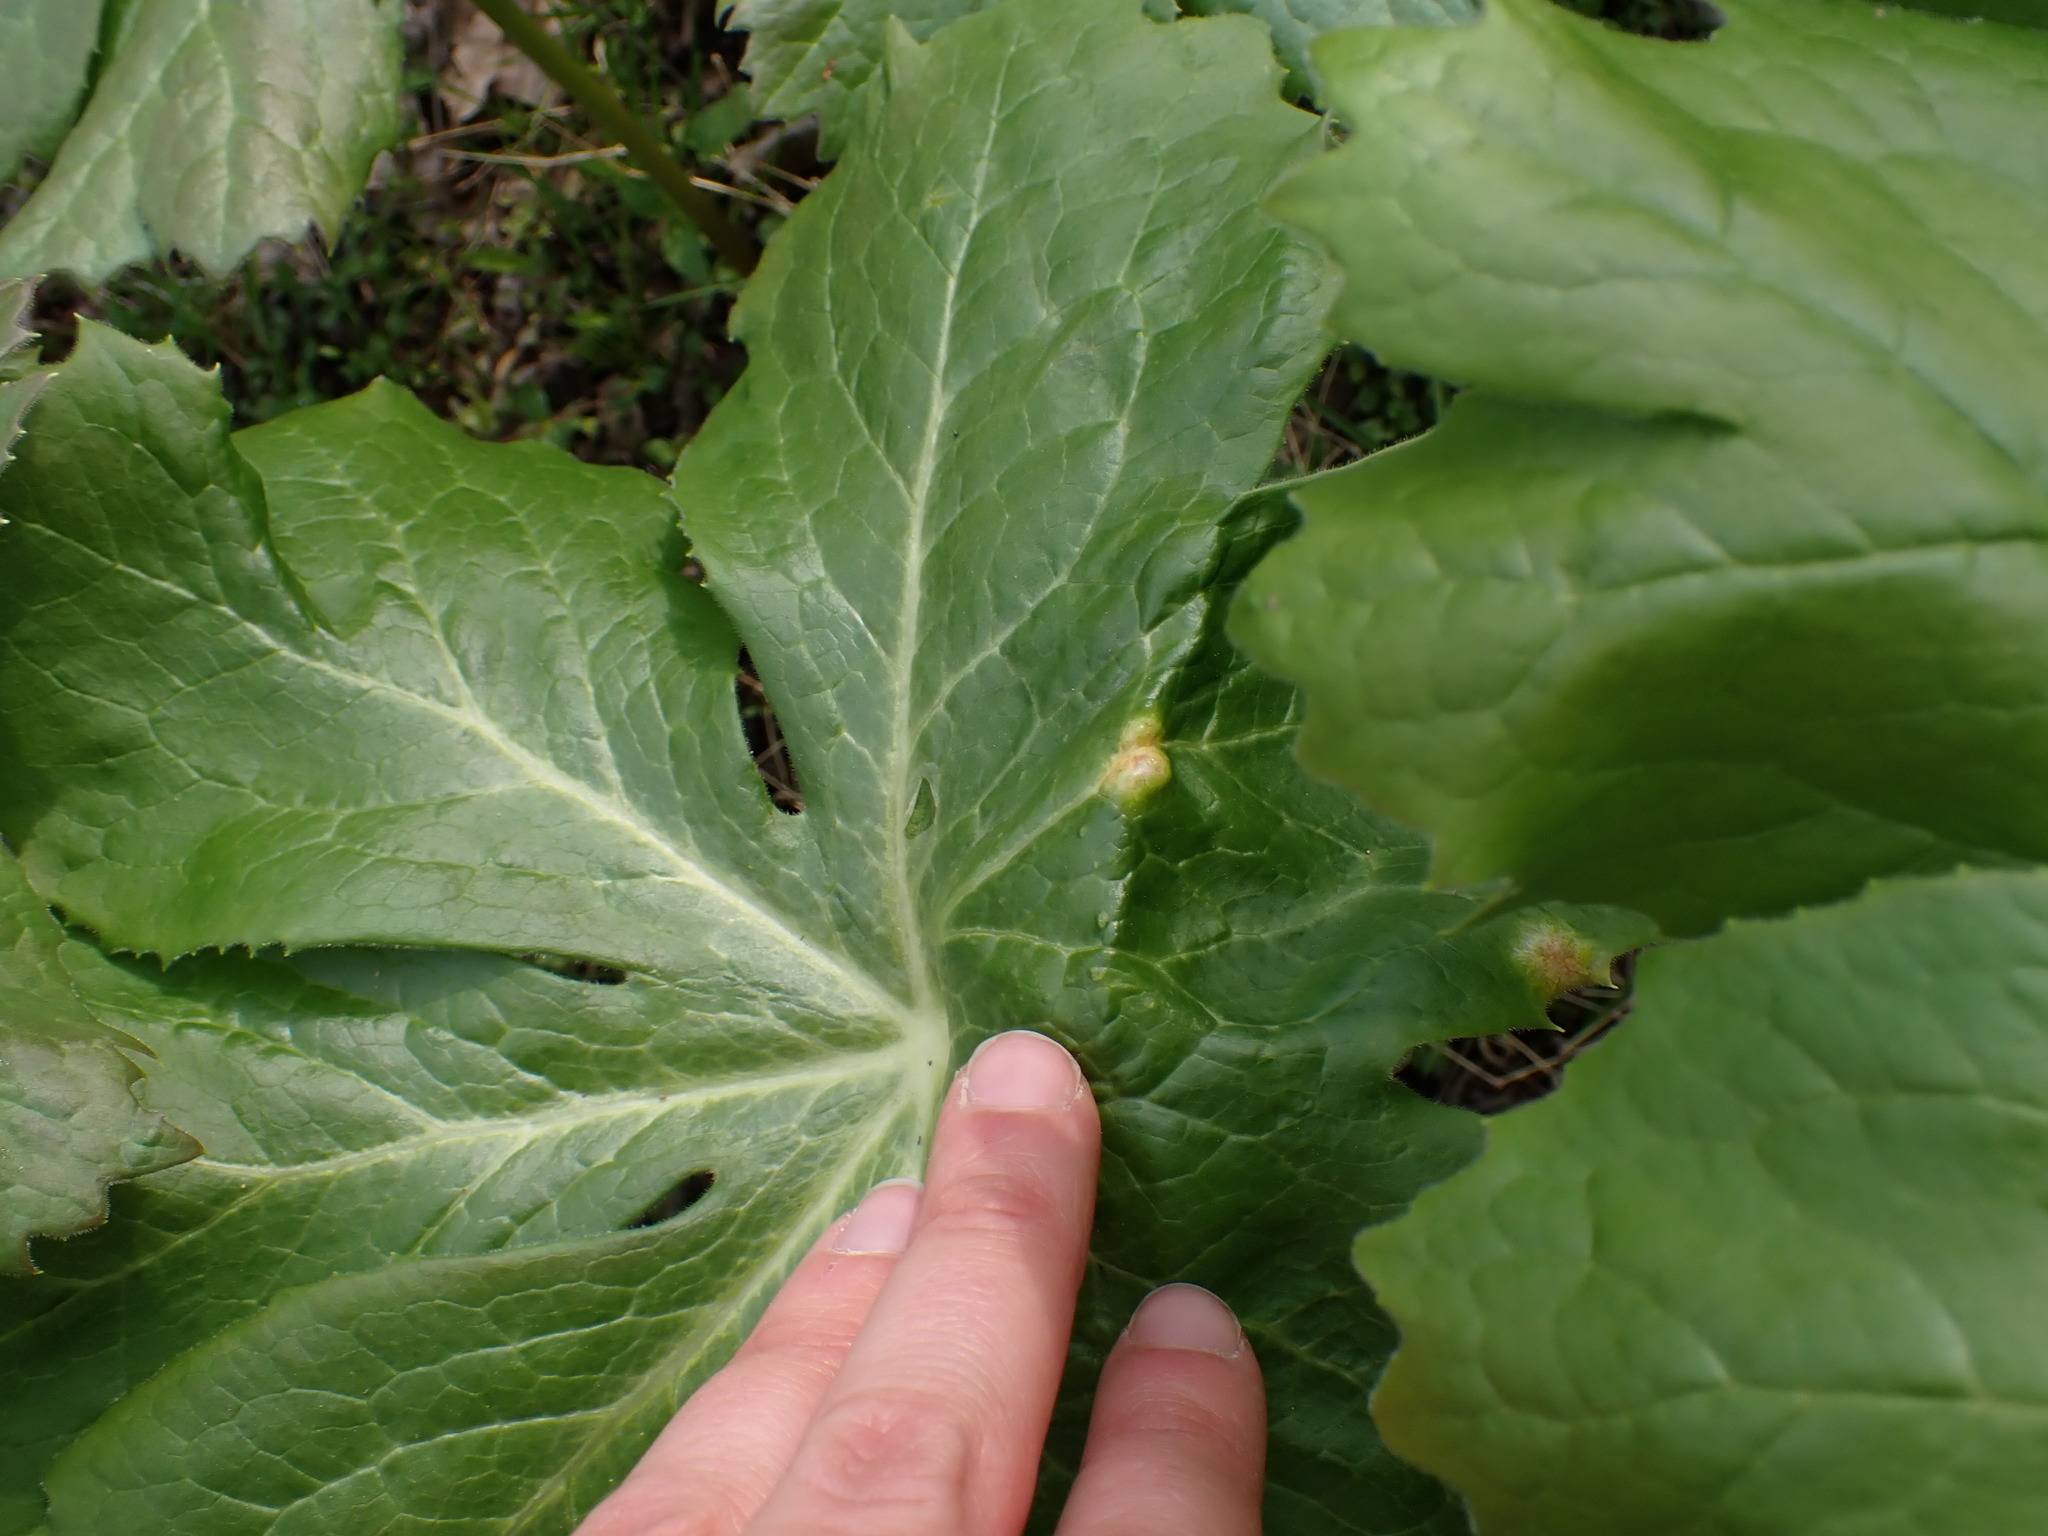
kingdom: Fungi
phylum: Basidiomycota
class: Pucciniomycetes
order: Pucciniales
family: Pucciniaceae
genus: Puccinia
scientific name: Puccinia podophylli
